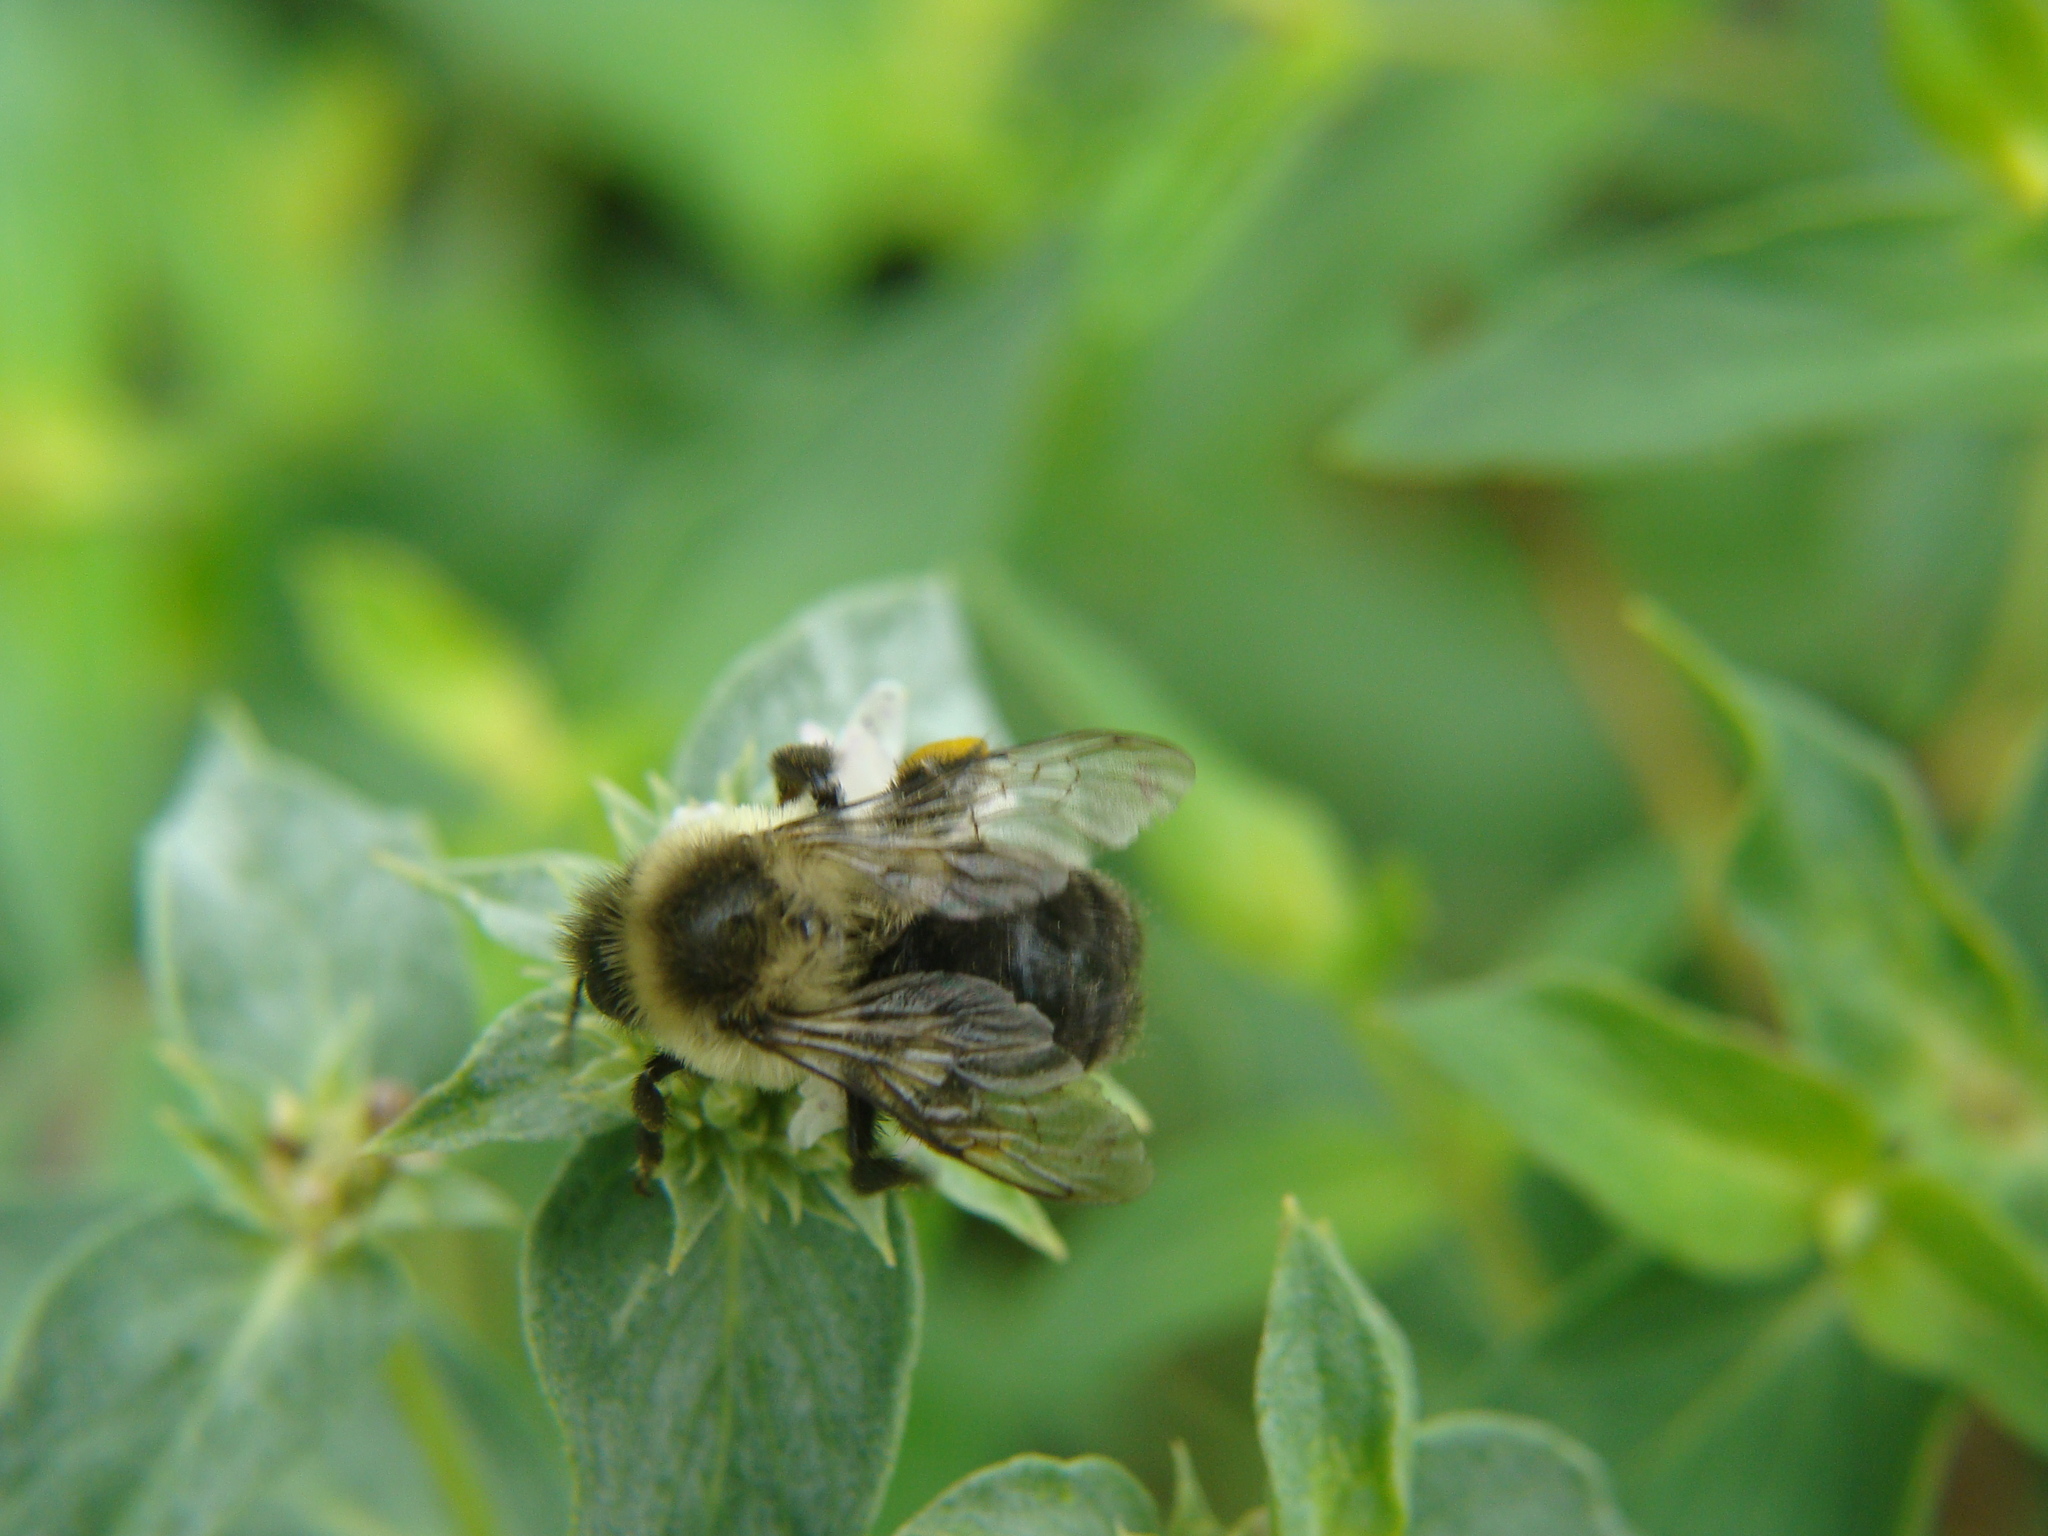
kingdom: Animalia
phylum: Arthropoda
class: Insecta
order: Hymenoptera
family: Apidae
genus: Bombus
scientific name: Bombus impatiens
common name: Common eastern bumble bee
